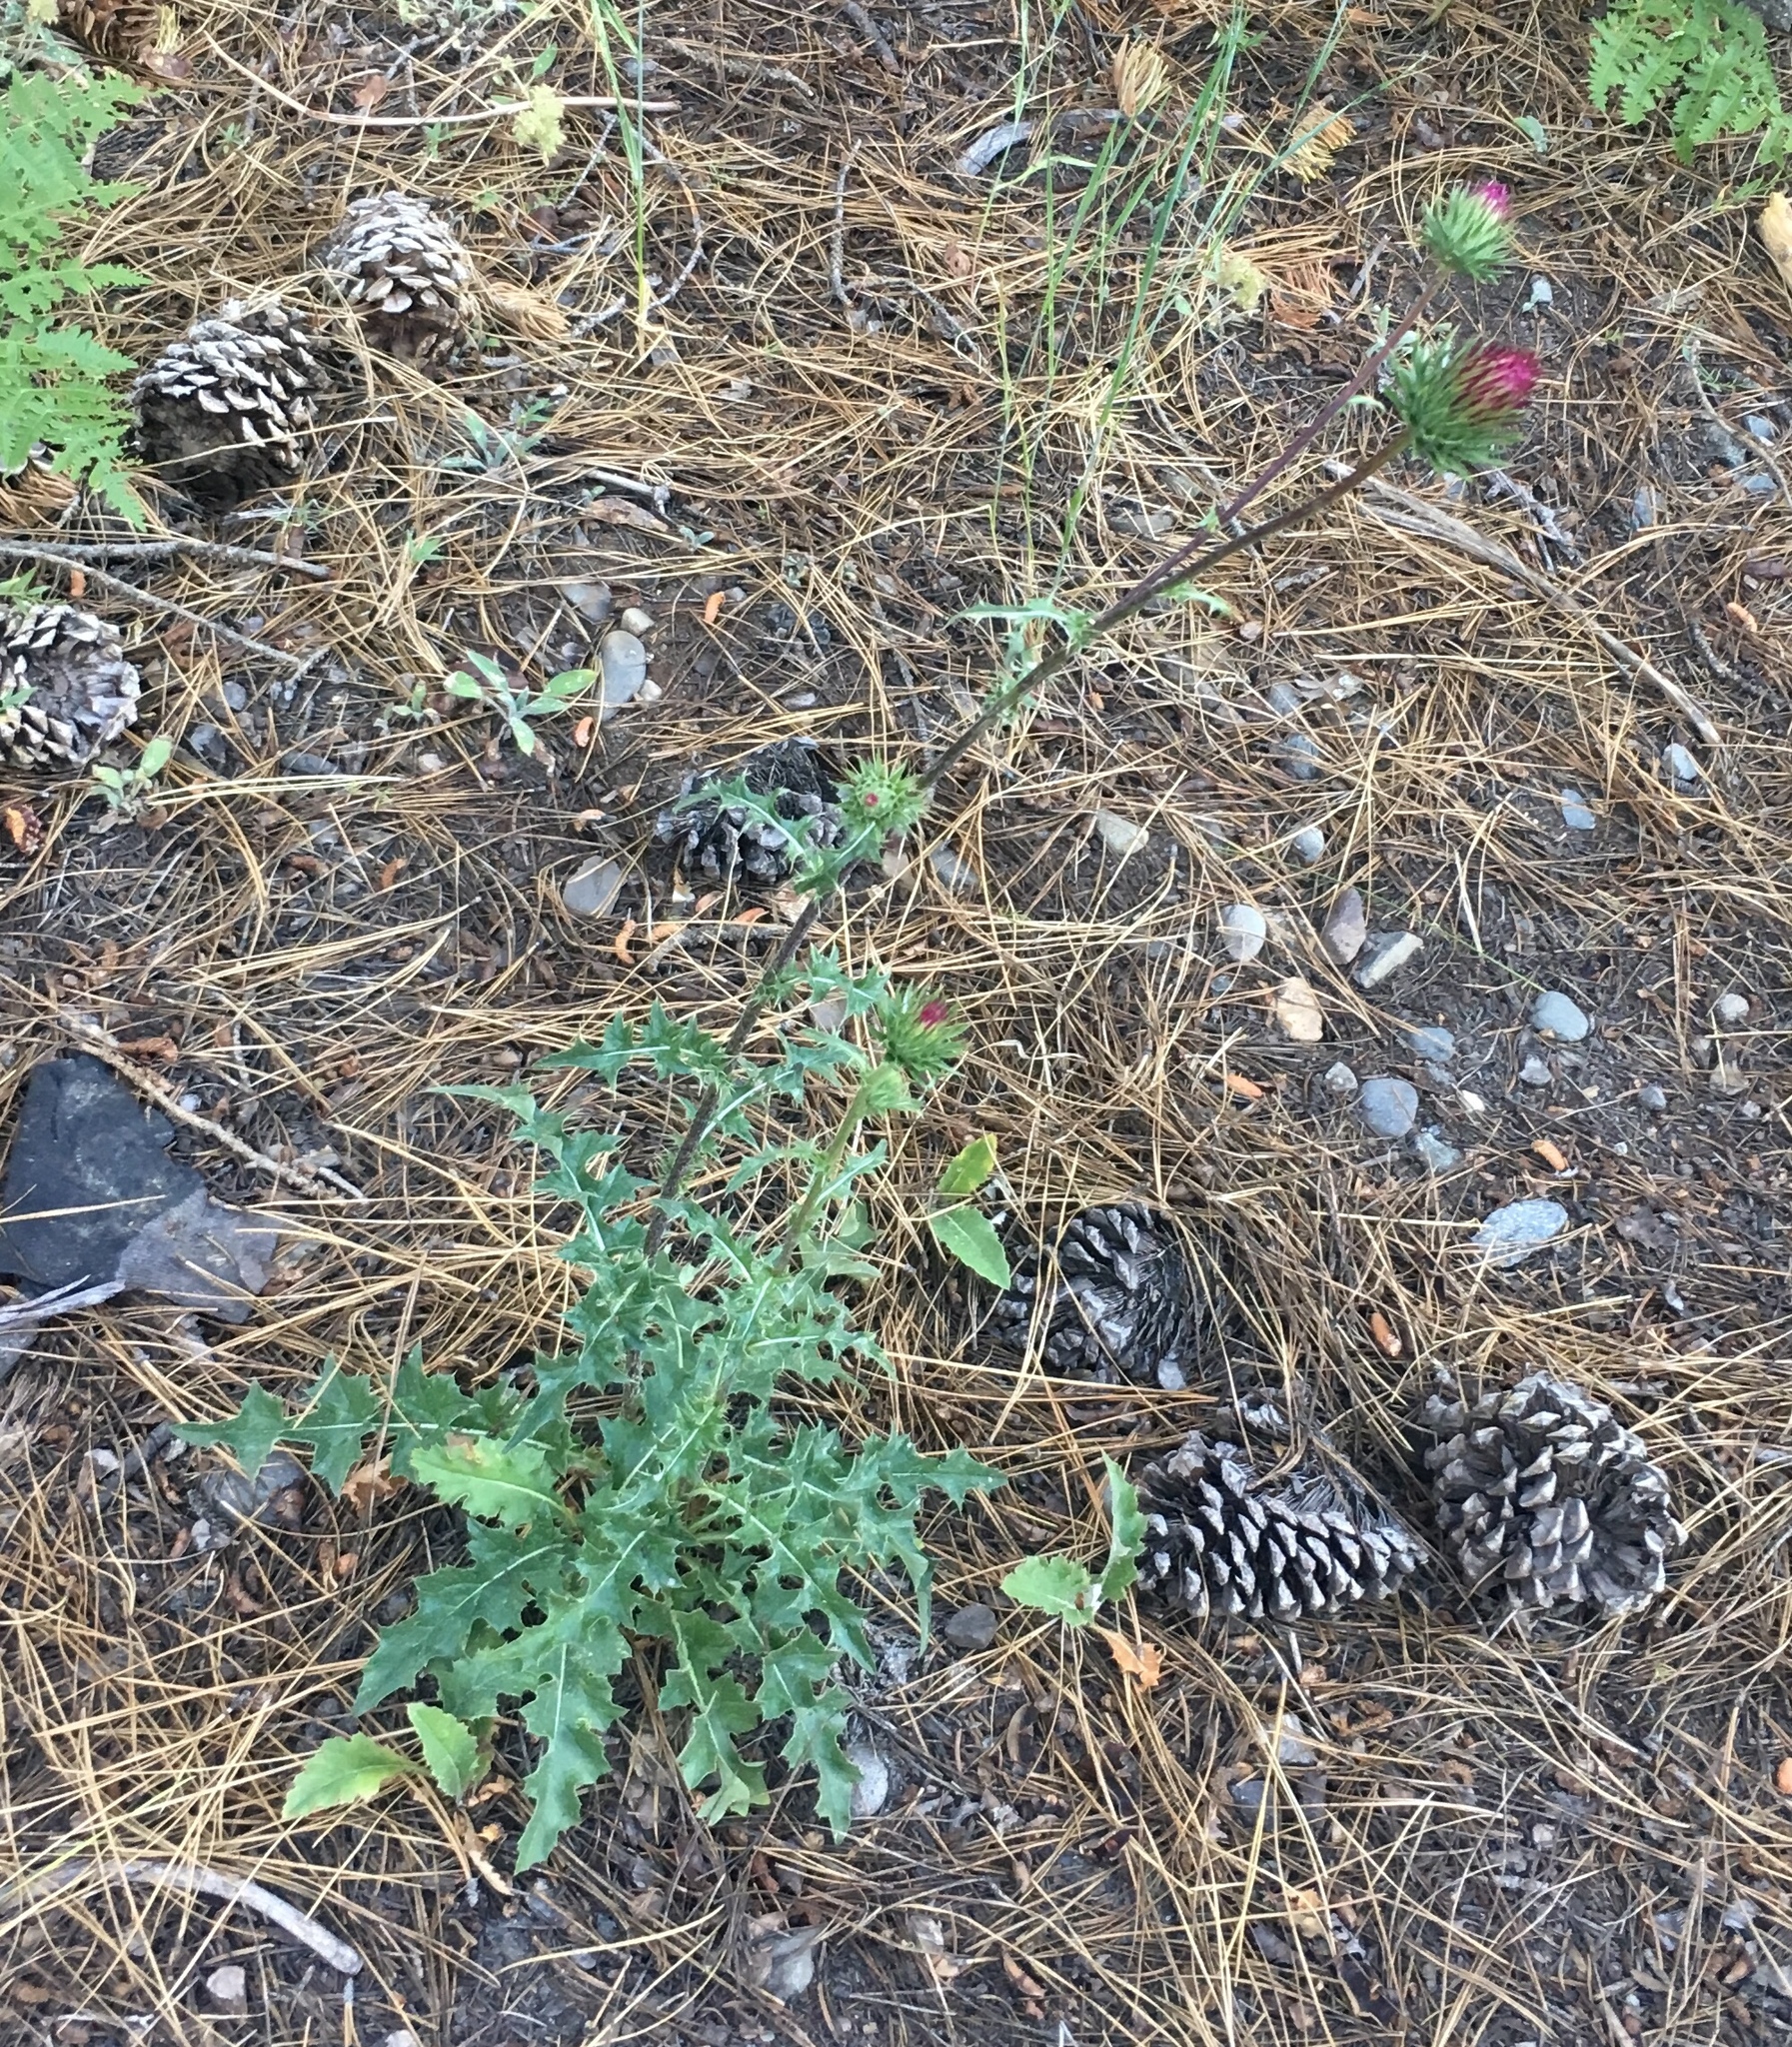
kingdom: Plantae
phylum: Tracheophyta
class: Magnoliopsida
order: Asterales
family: Asteraceae
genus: Cirsium
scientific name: Cirsium andersonii
